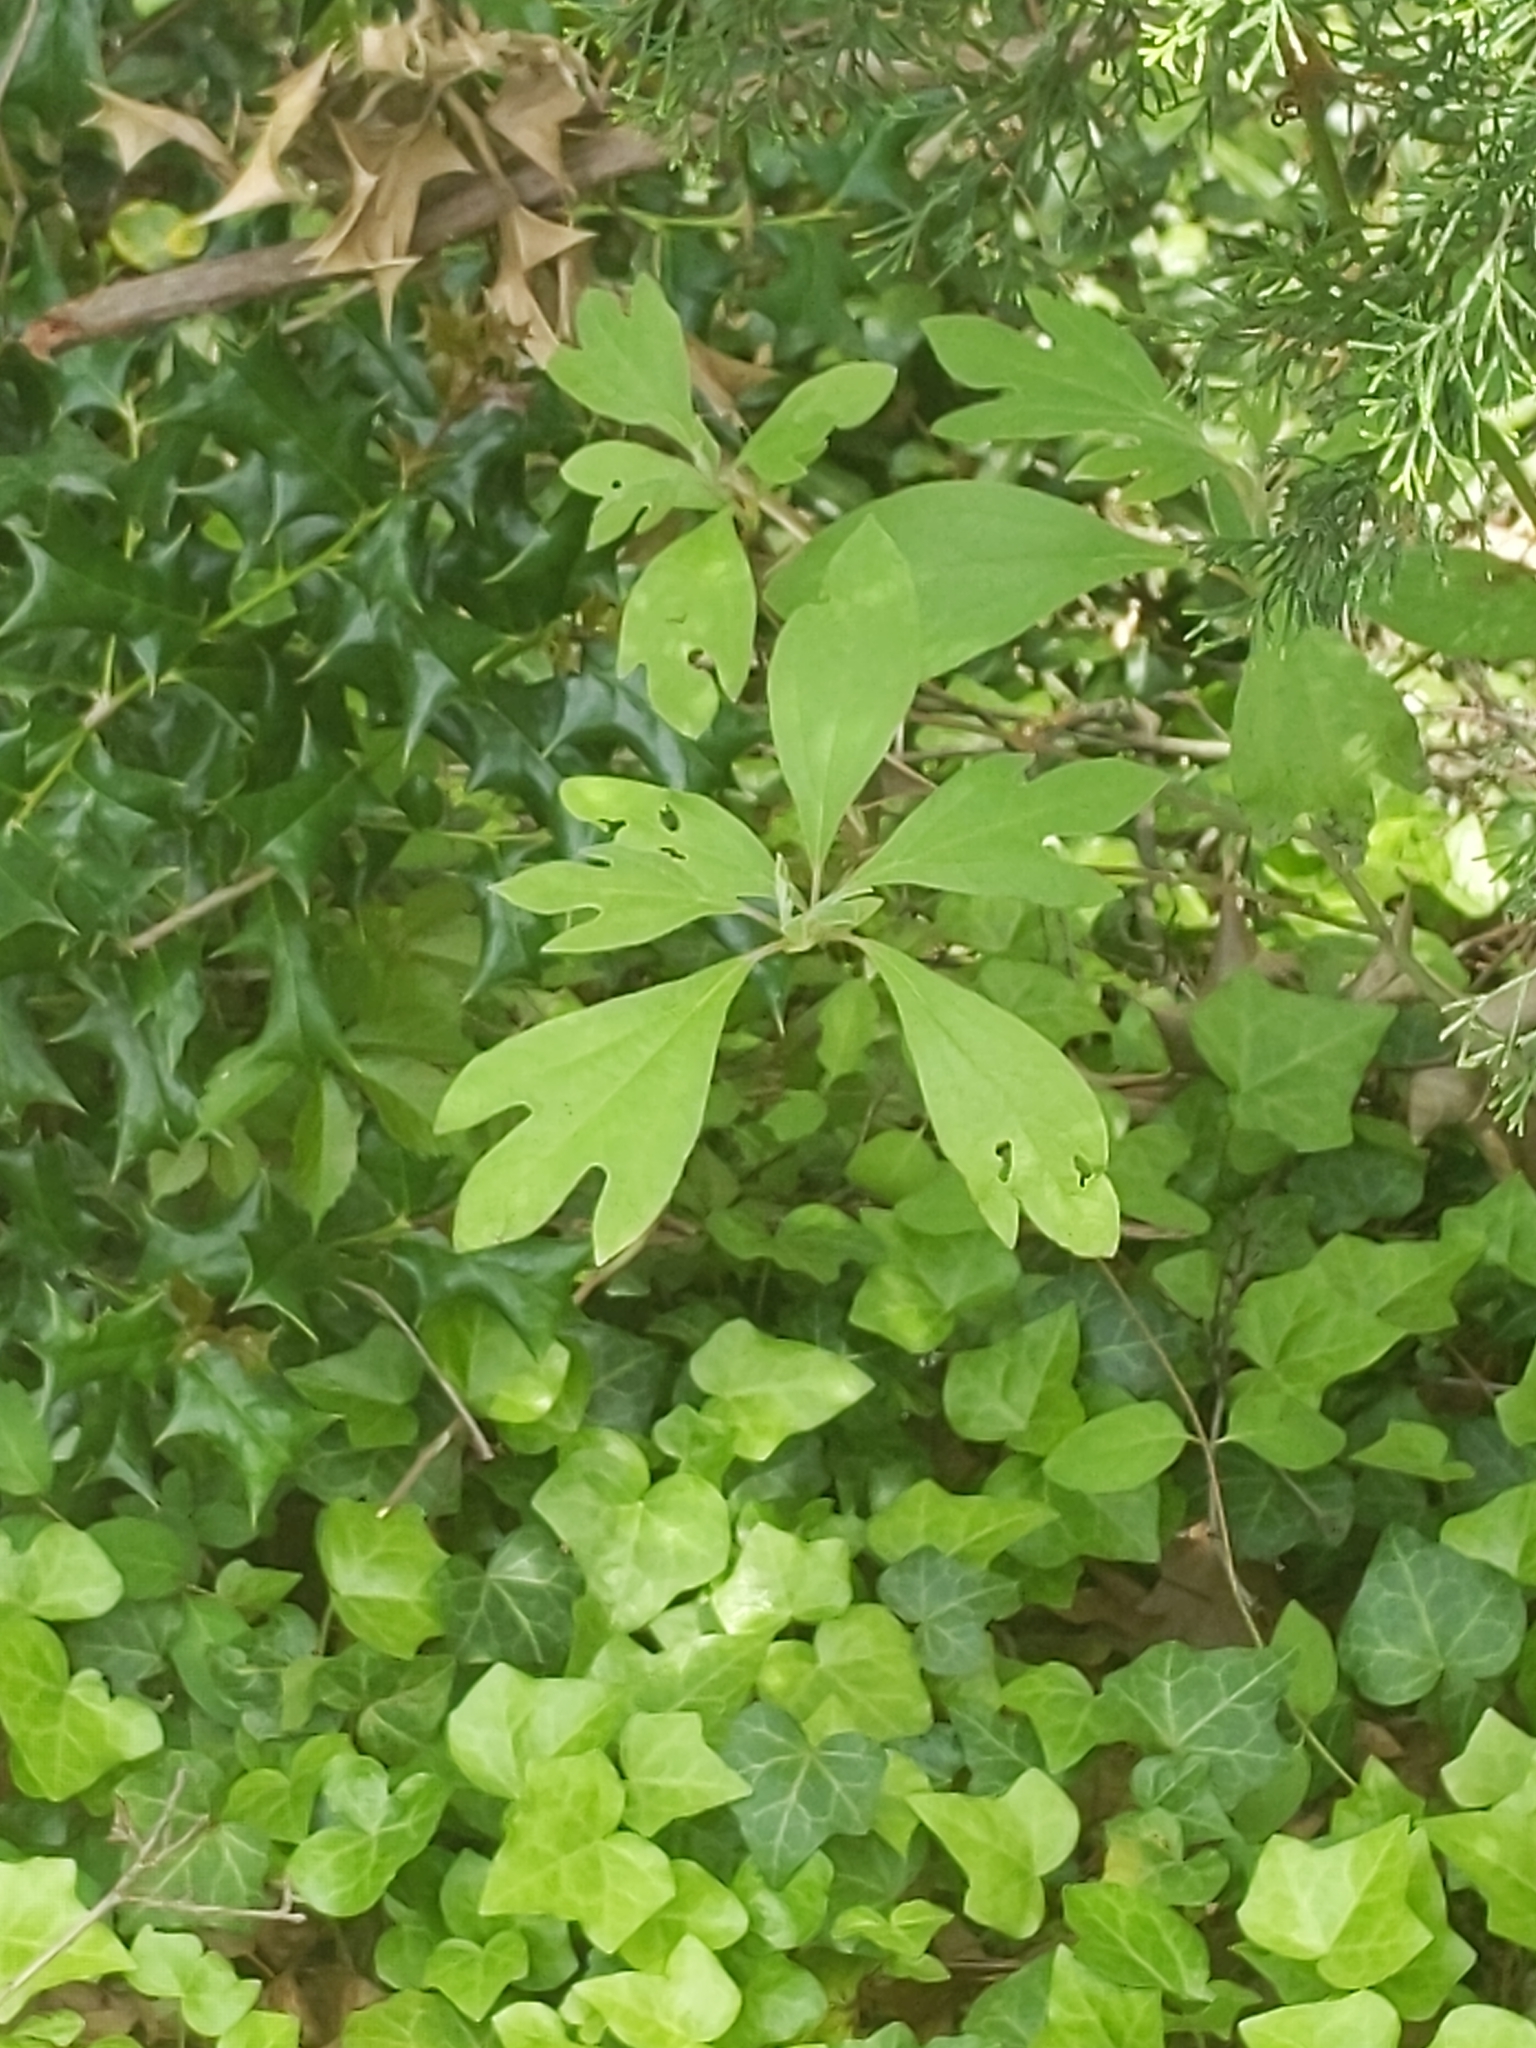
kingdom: Plantae
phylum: Tracheophyta
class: Magnoliopsida
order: Laurales
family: Lauraceae
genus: Sassafras
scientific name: Sassafras albidum
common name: Sassafras
